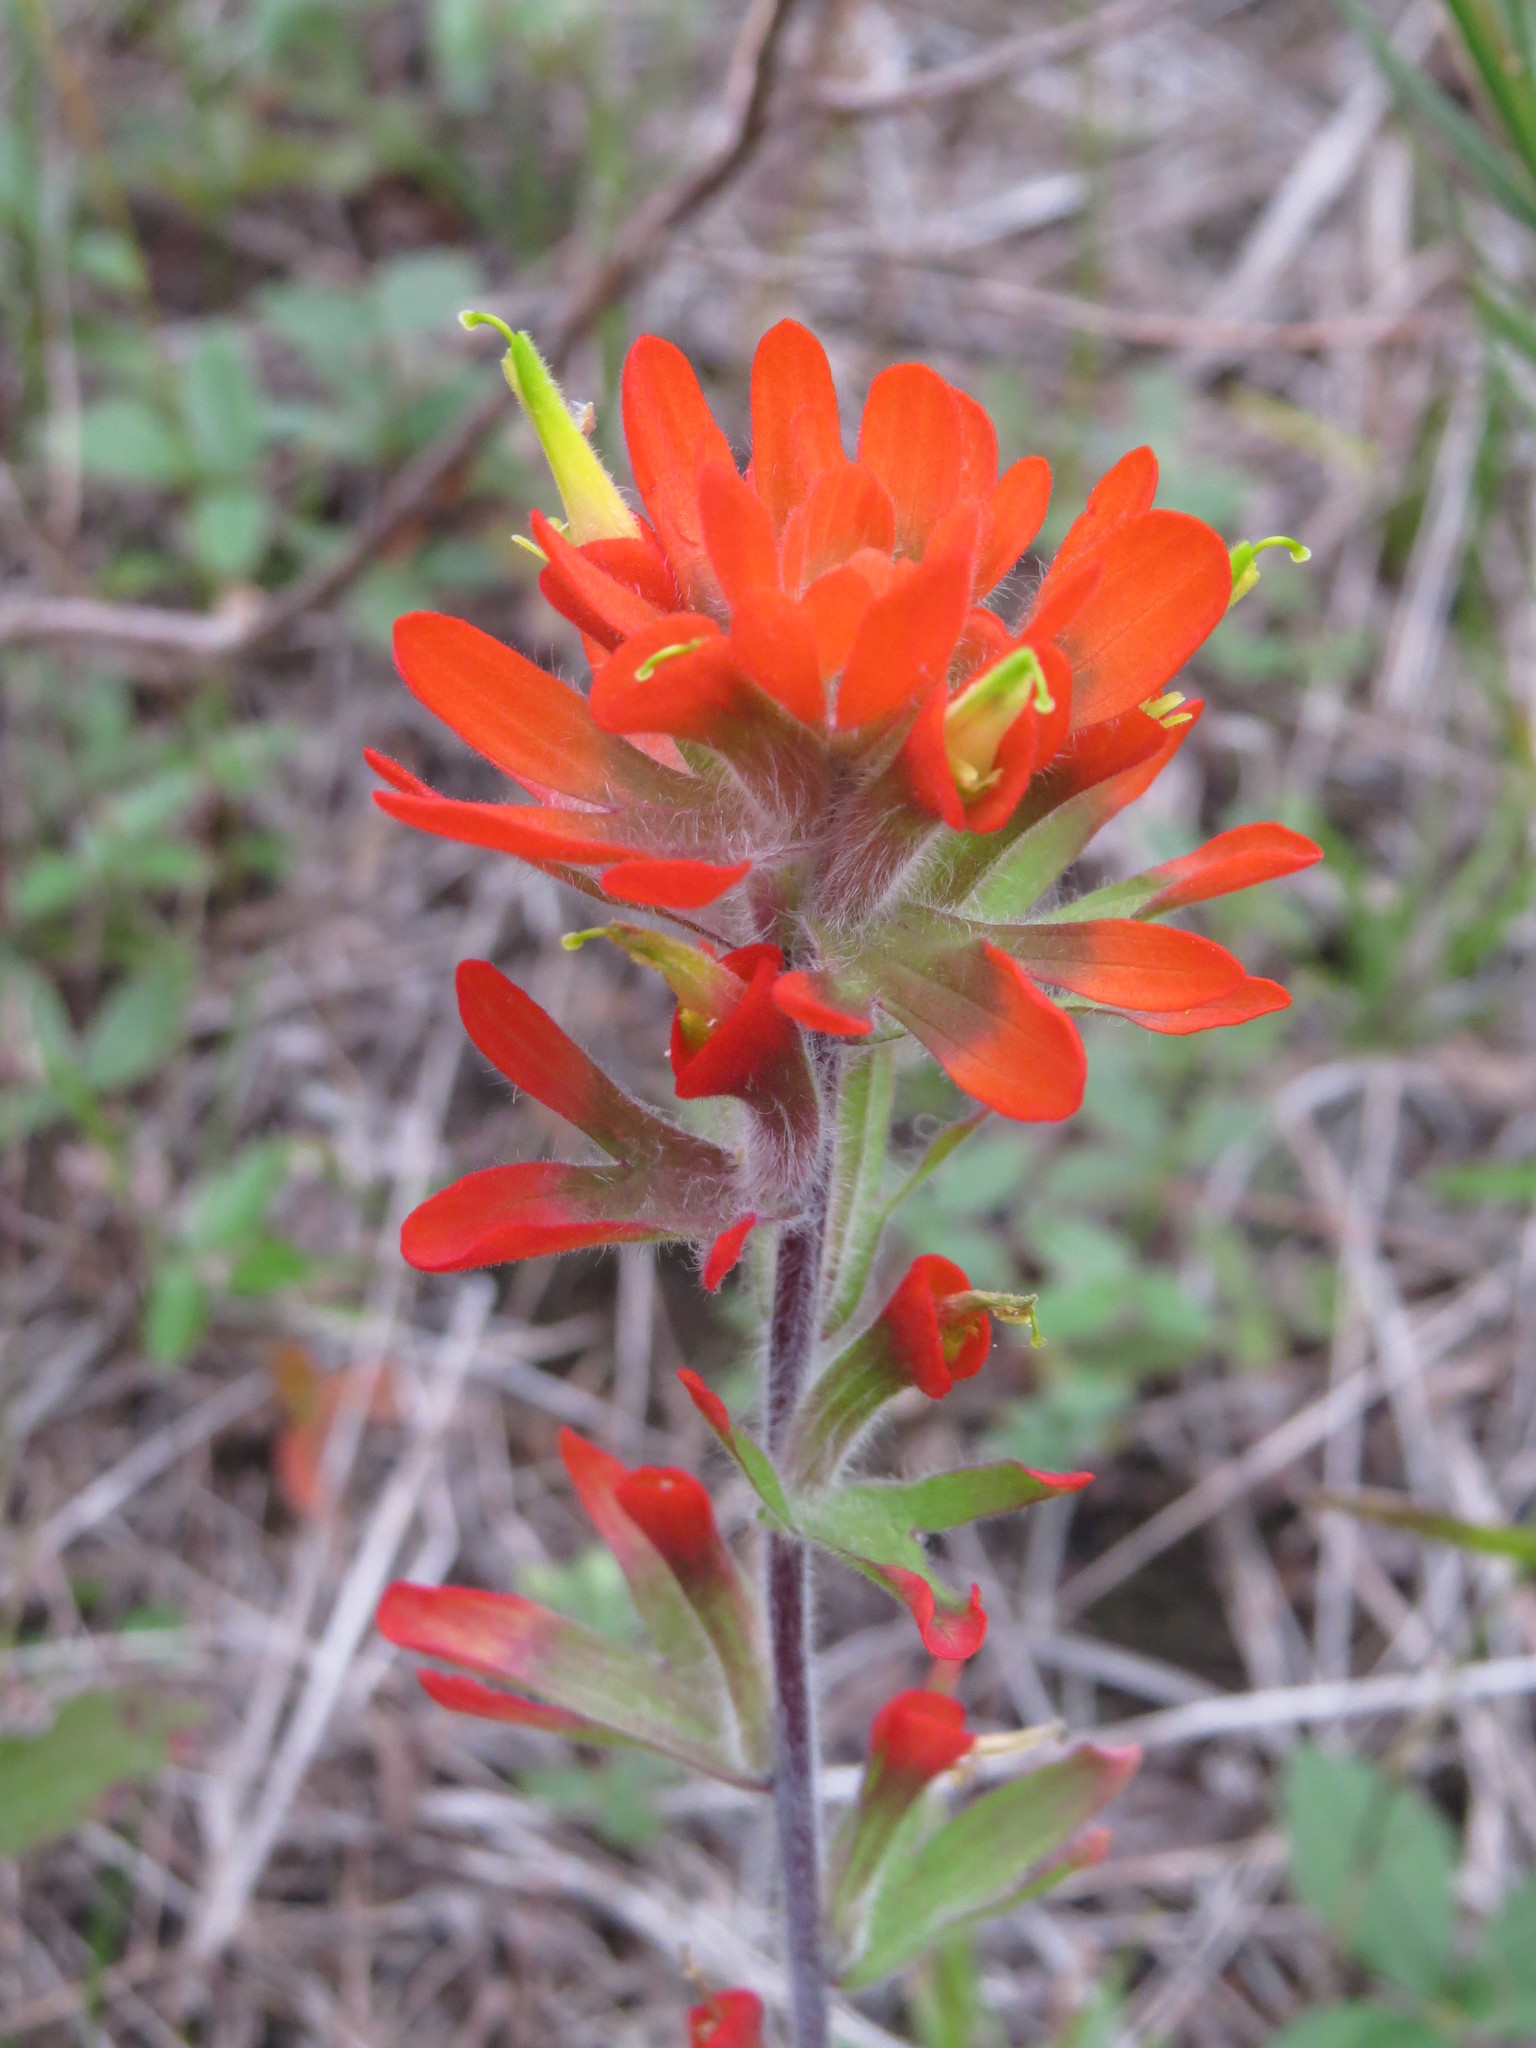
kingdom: Plantae
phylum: Tracheophyta
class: Magnoliopsida
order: Lamiales
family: Orobanchaceae
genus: Castilleja
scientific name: Castilleja coccinea
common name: Scarlet paintbrush
